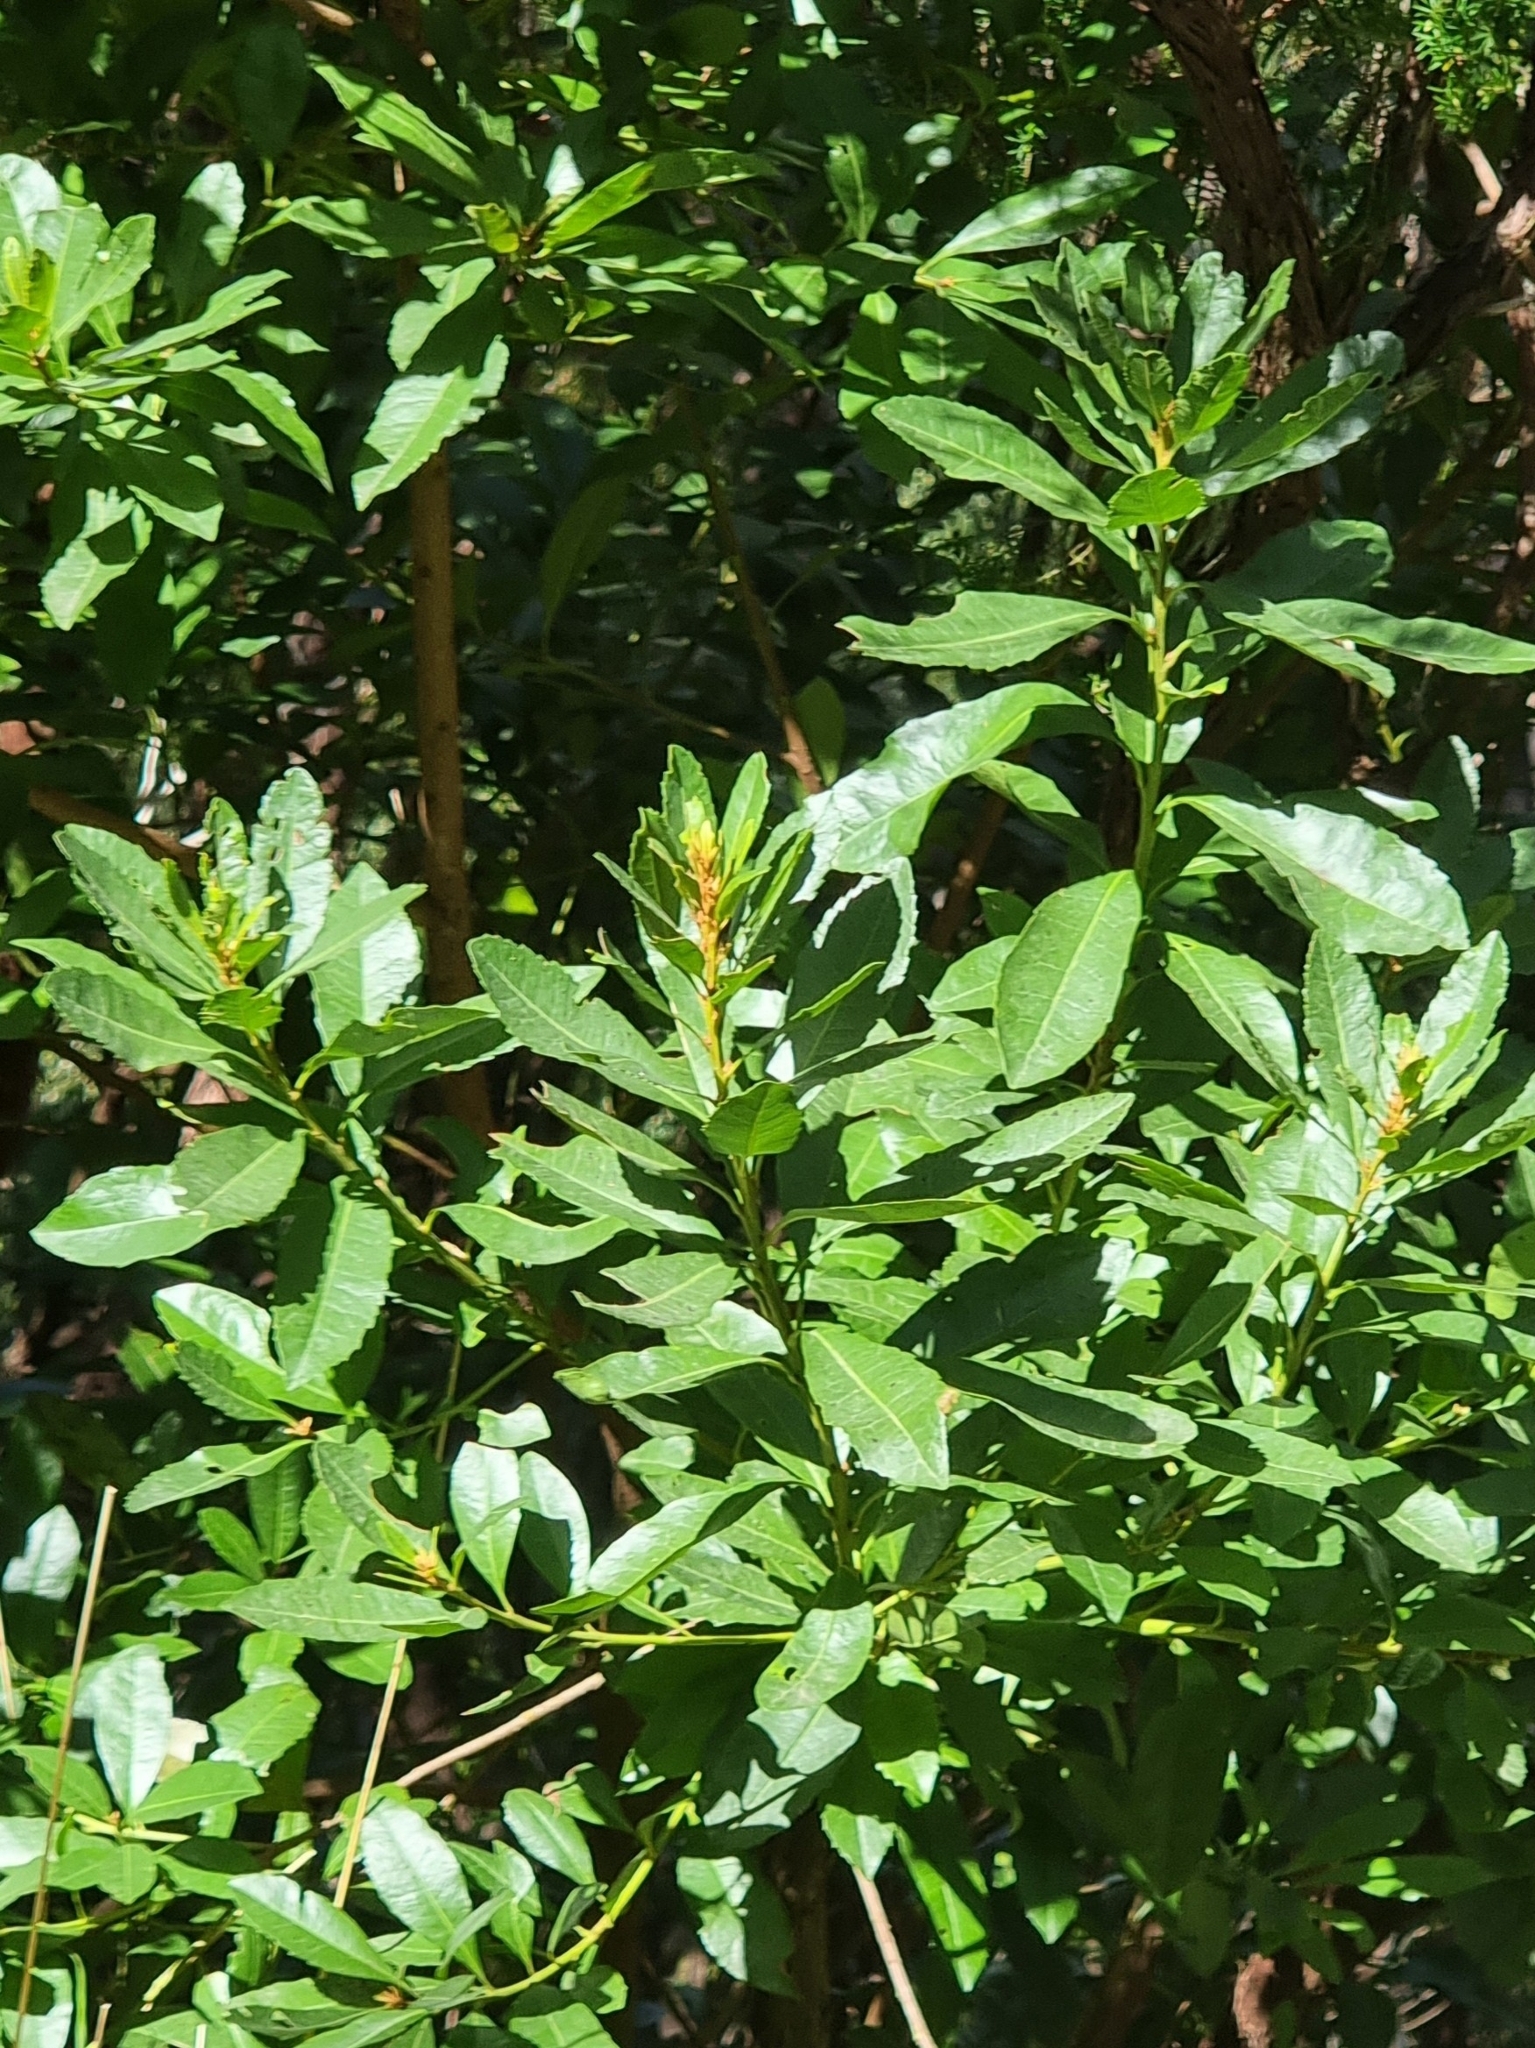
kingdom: Plantae
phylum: Tracheophyta
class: Magnoliopsida
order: Fagales
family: Myricaceae
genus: Morella
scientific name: Morella faya
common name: Firetree
